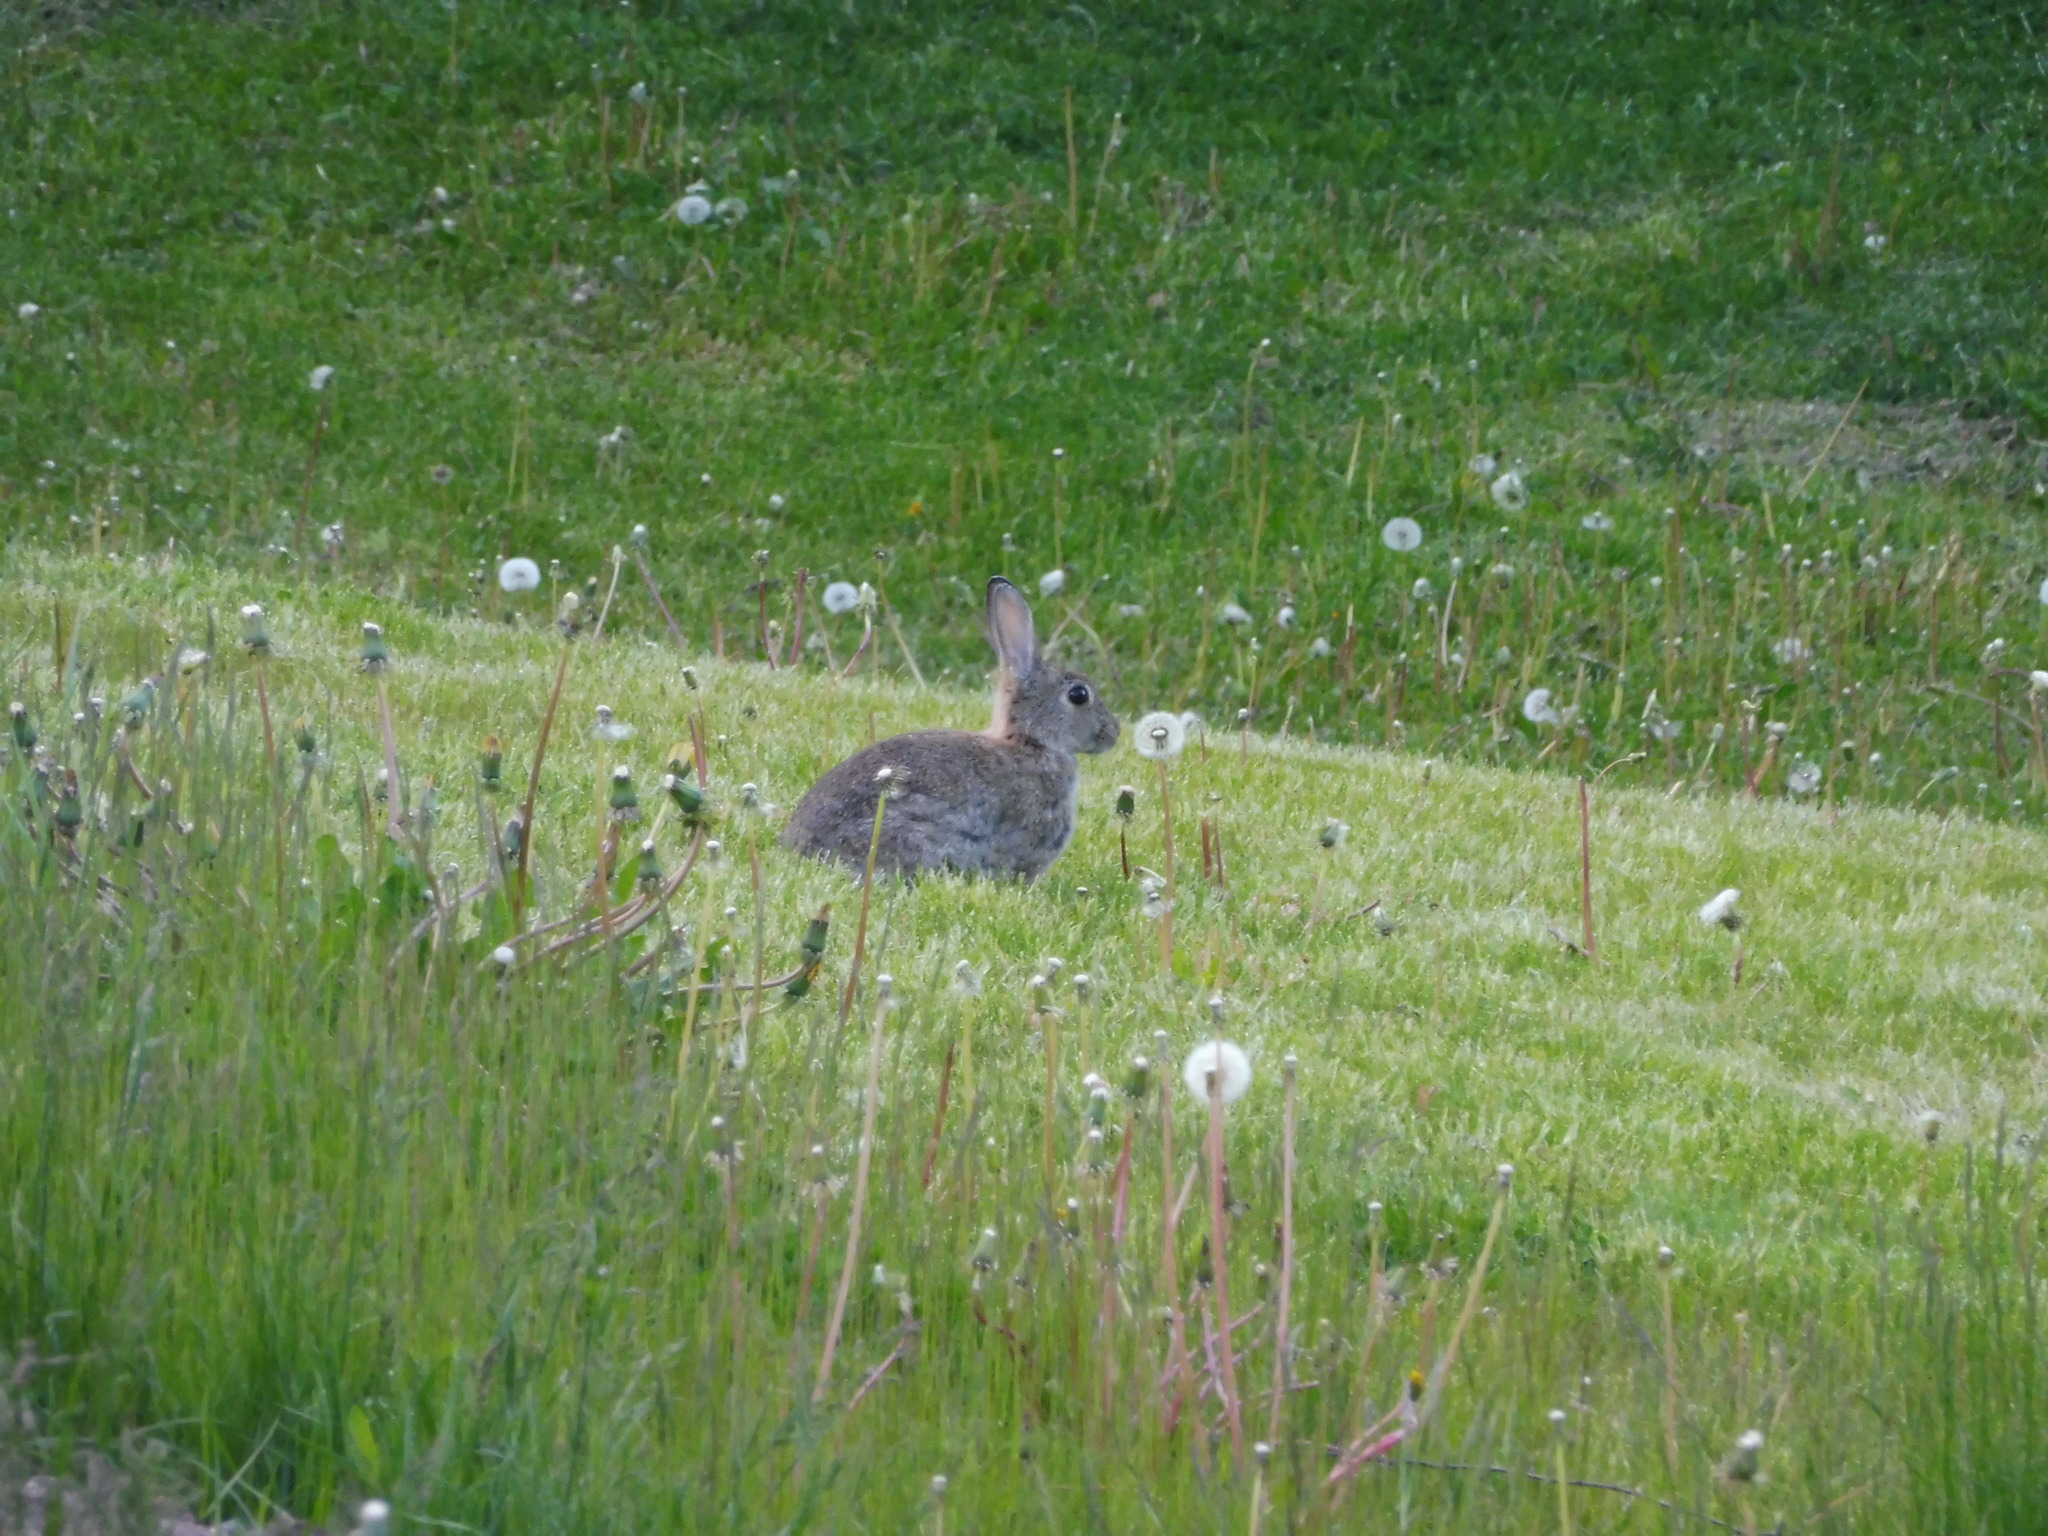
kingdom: Animalia
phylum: Chordata
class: Mammalia
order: Lagomorpha
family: Leporidae
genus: Oryctolagus
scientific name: Oryctolagus cuniculus
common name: European rabbit
